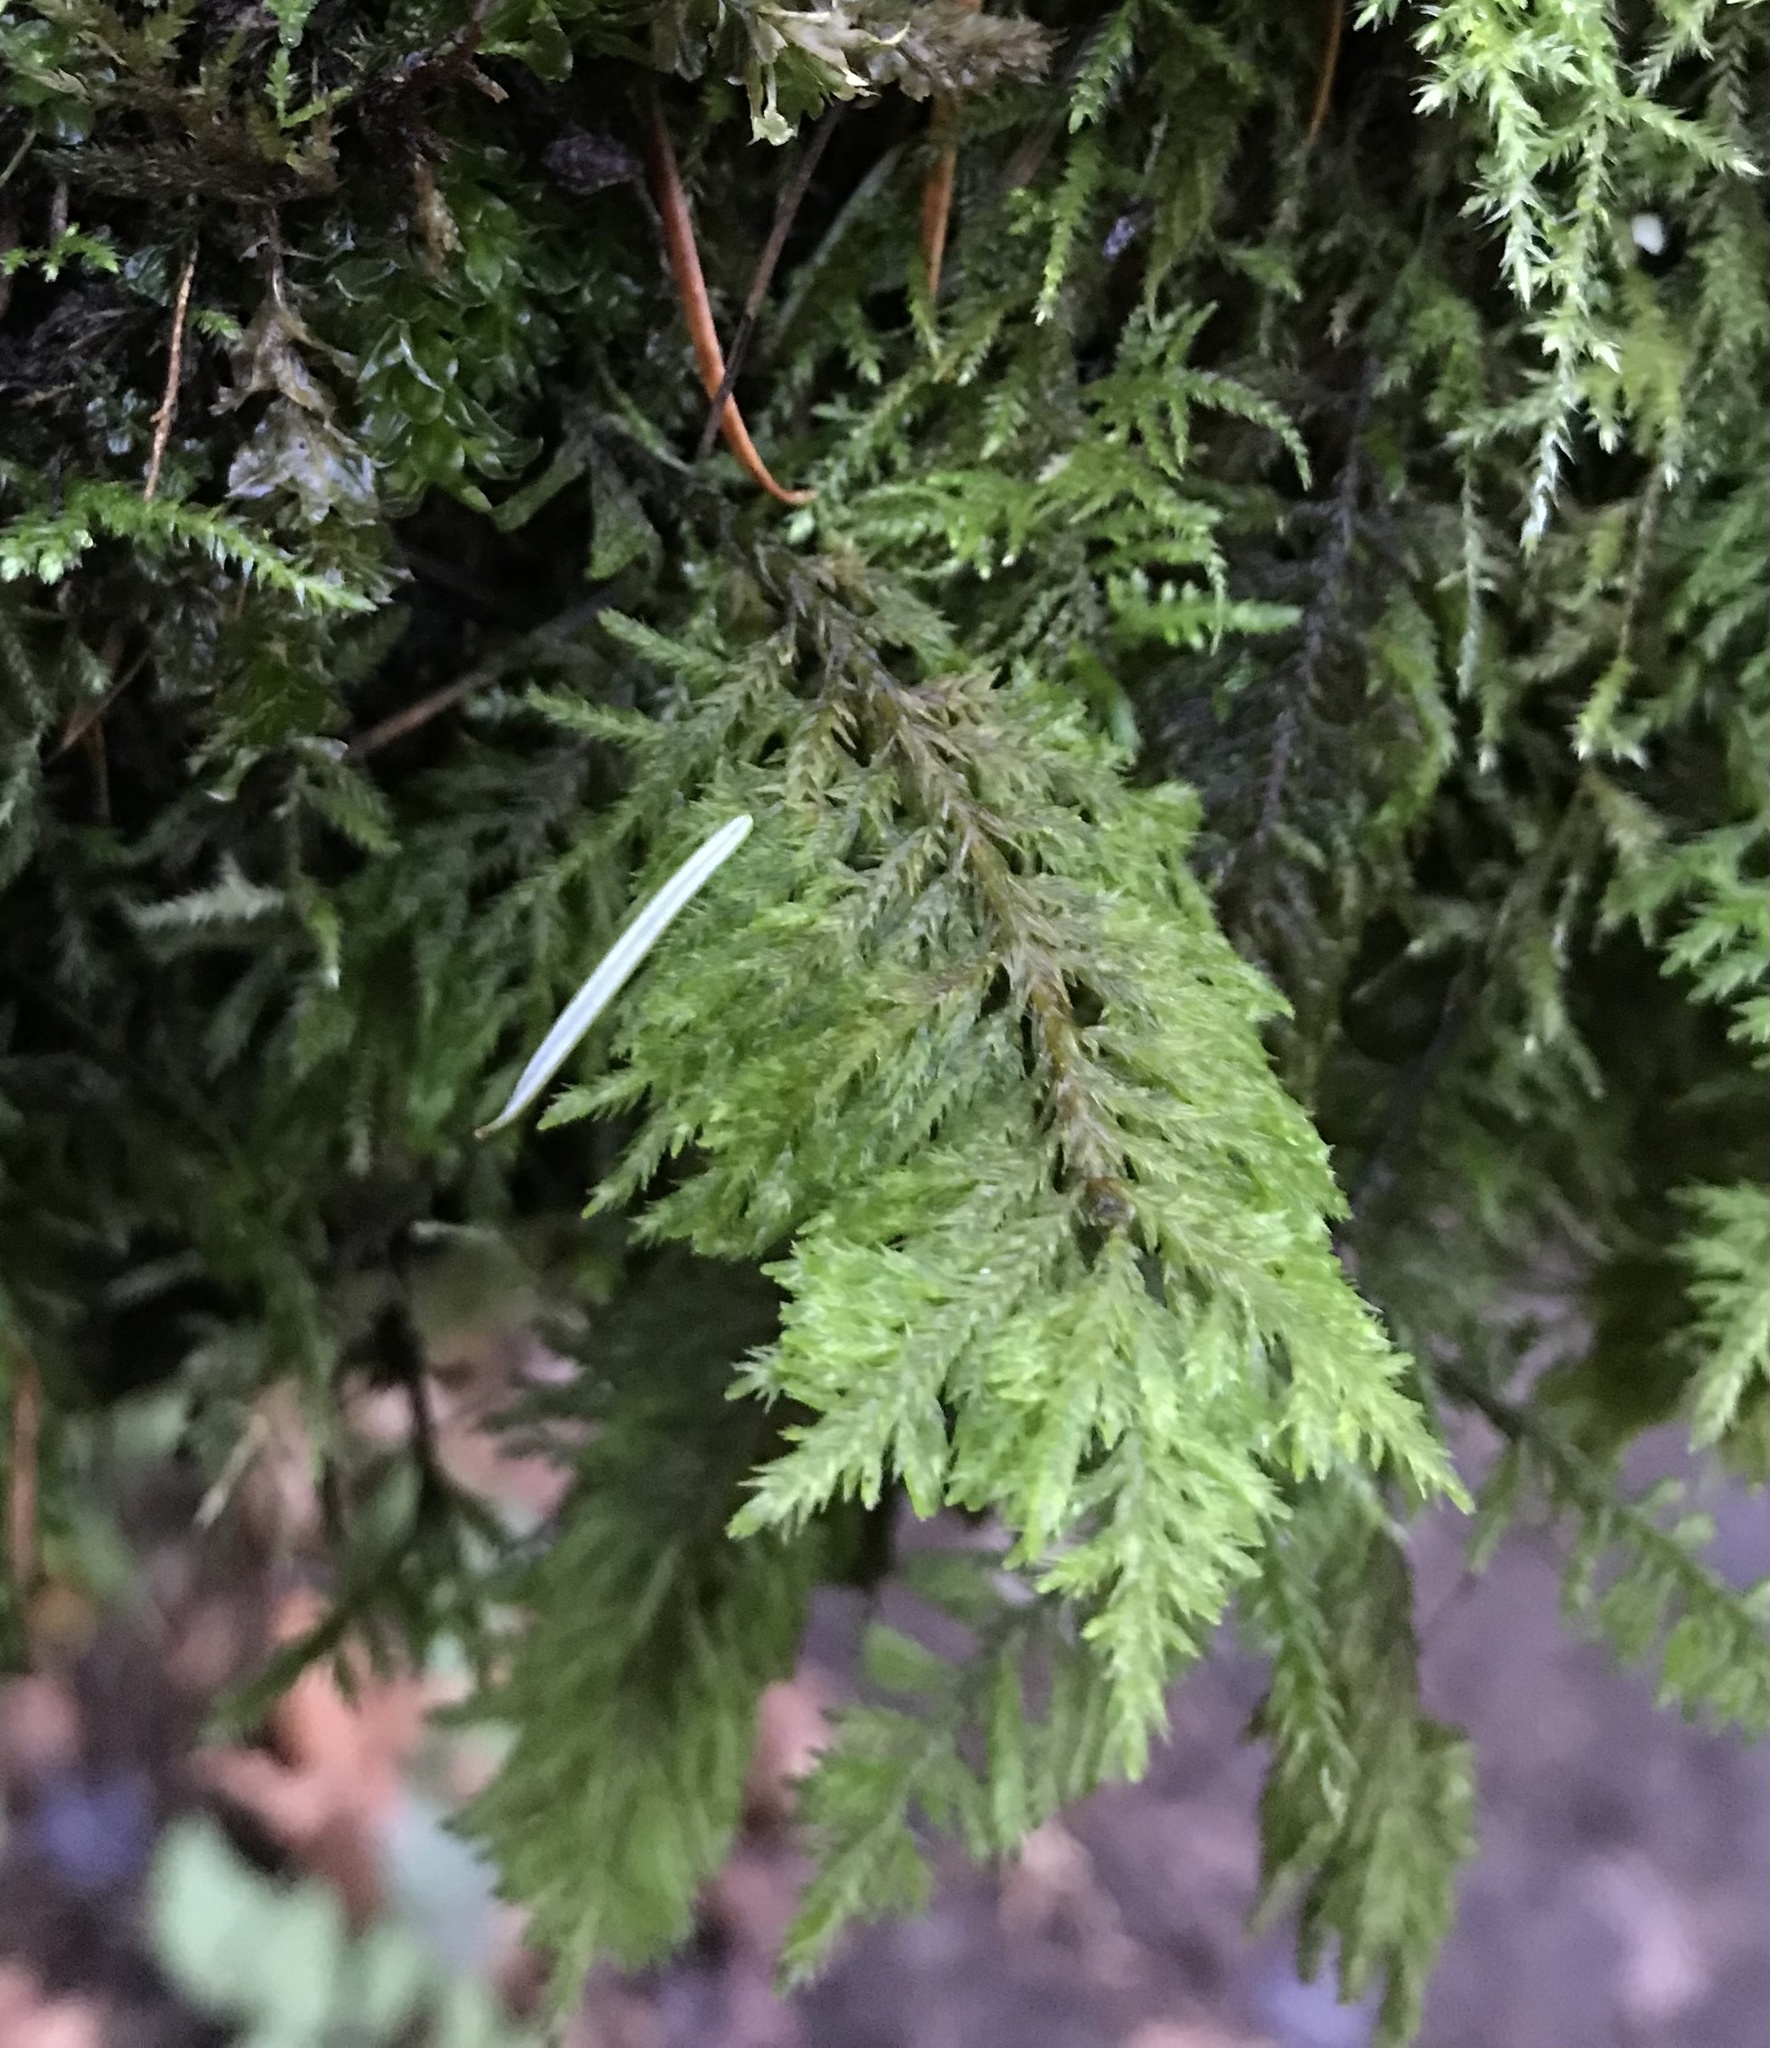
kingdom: Plantae
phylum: Bryophyta
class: Bryopsida
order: Hypnales
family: Cryphaeaceae
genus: Dendroalsia
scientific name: Dendroalsia abietina
